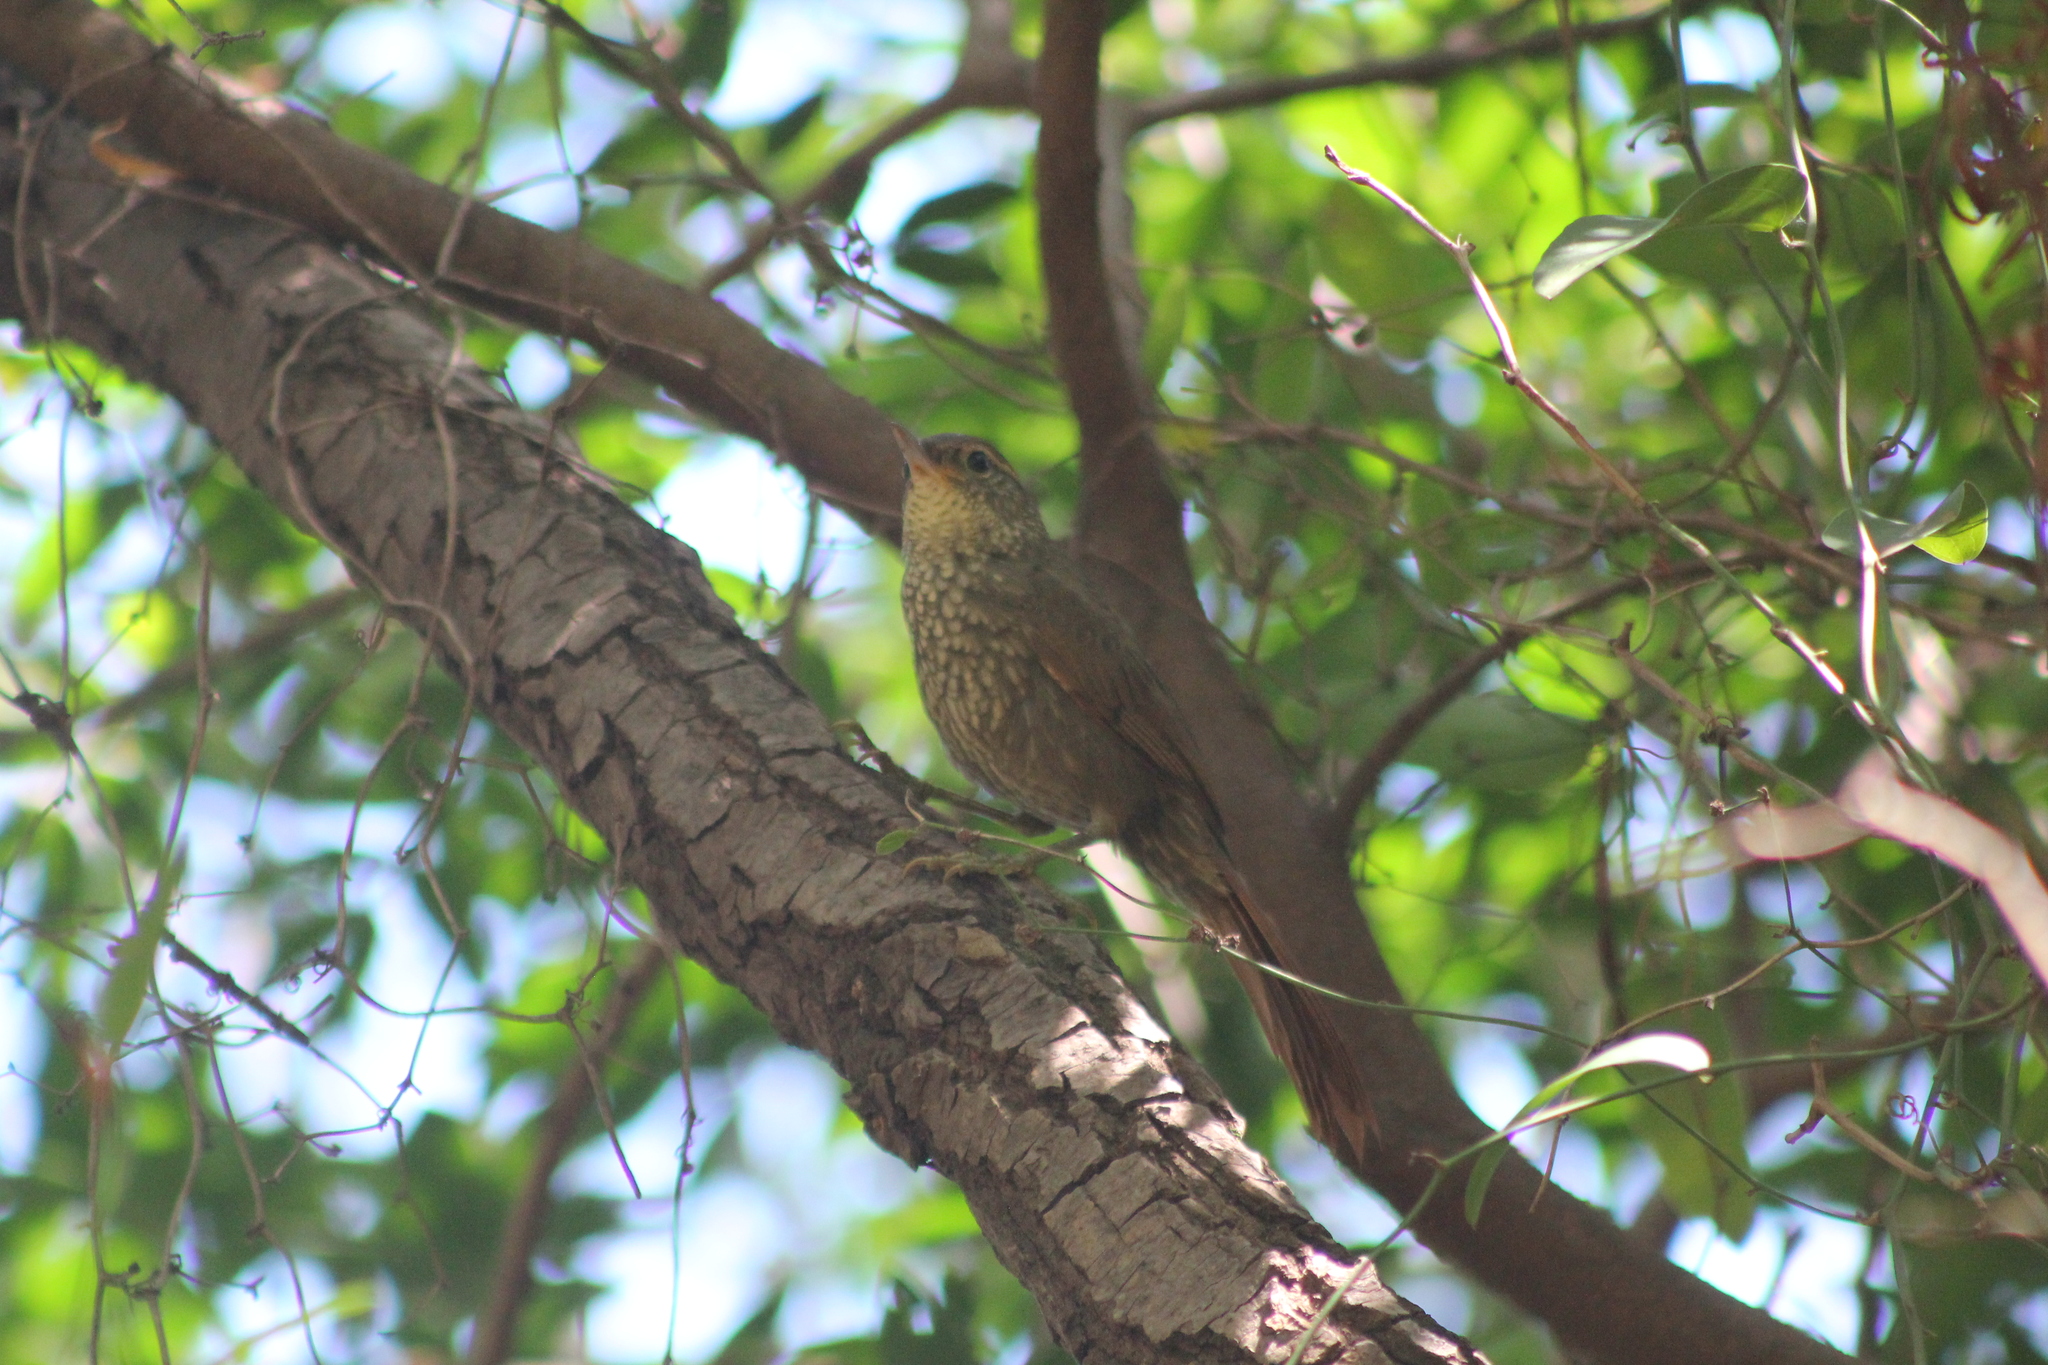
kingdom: Animalia
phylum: Chordata
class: Aves
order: Passeriformes
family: Furnariidae
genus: Syndactyla
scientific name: Syndactyla rufosuperciliata
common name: Buff-browed foliage-gleaner
